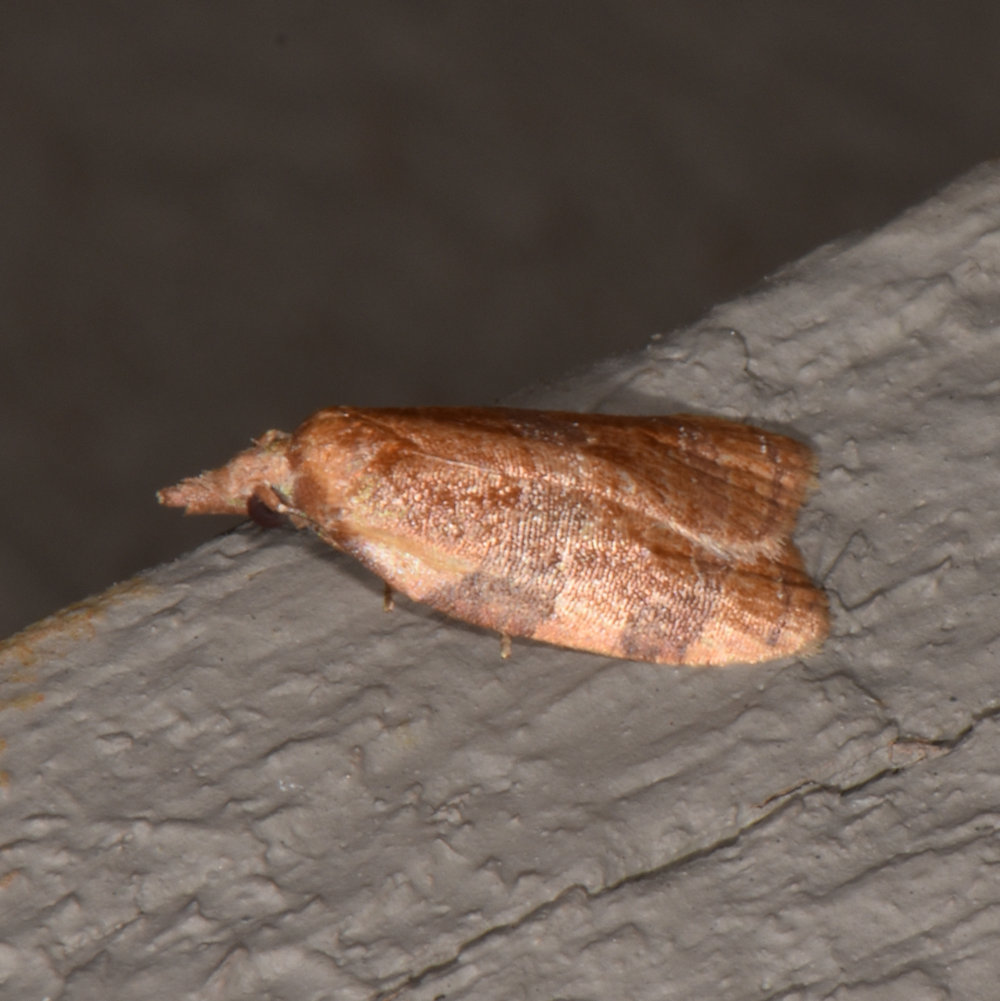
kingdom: Animalia
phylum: Arthropoda
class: Insecta
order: Lepidoptera
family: Tortricidae
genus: Cenopis
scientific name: Cenopis diluticostana
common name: Spring dead-leaf roller moth
